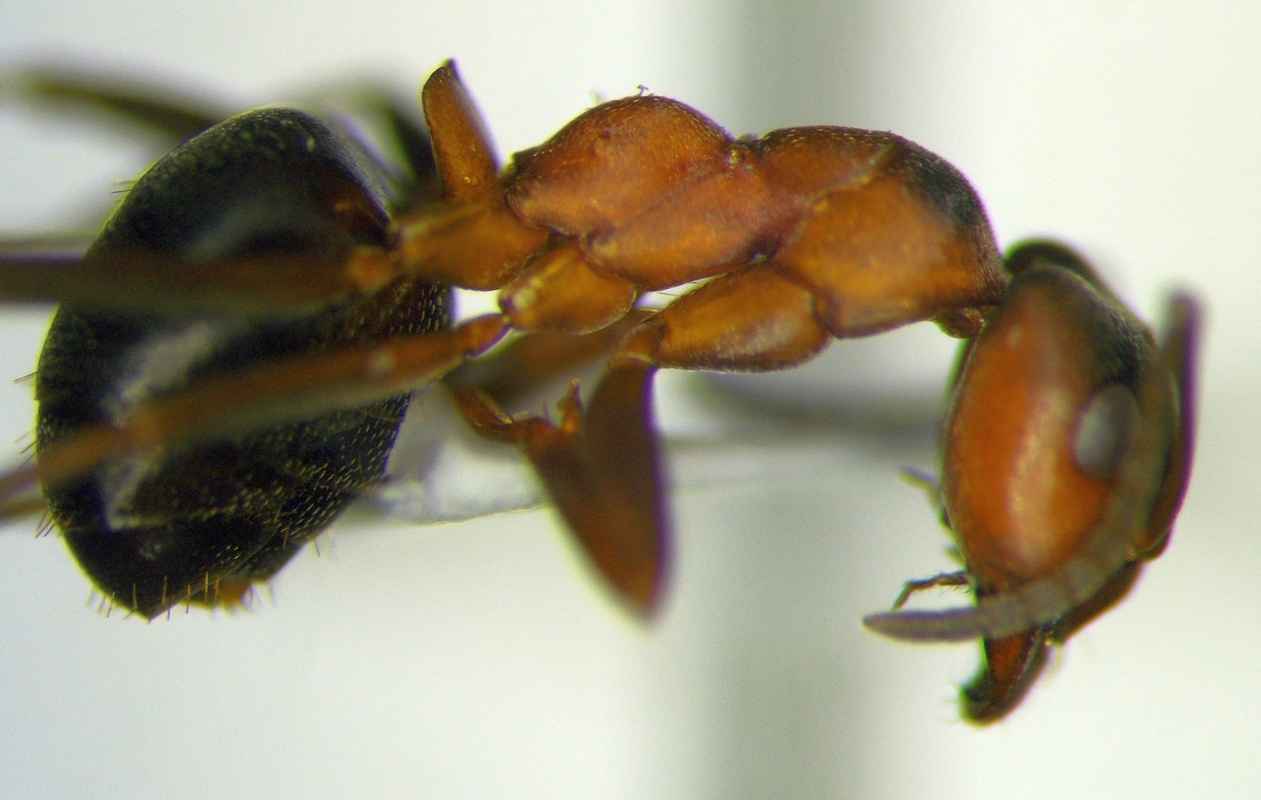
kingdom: Animalia
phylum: Arthropoda
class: Insecta
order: Hymenoptera
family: Formicidae
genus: Formica
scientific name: Formica pressilabris
